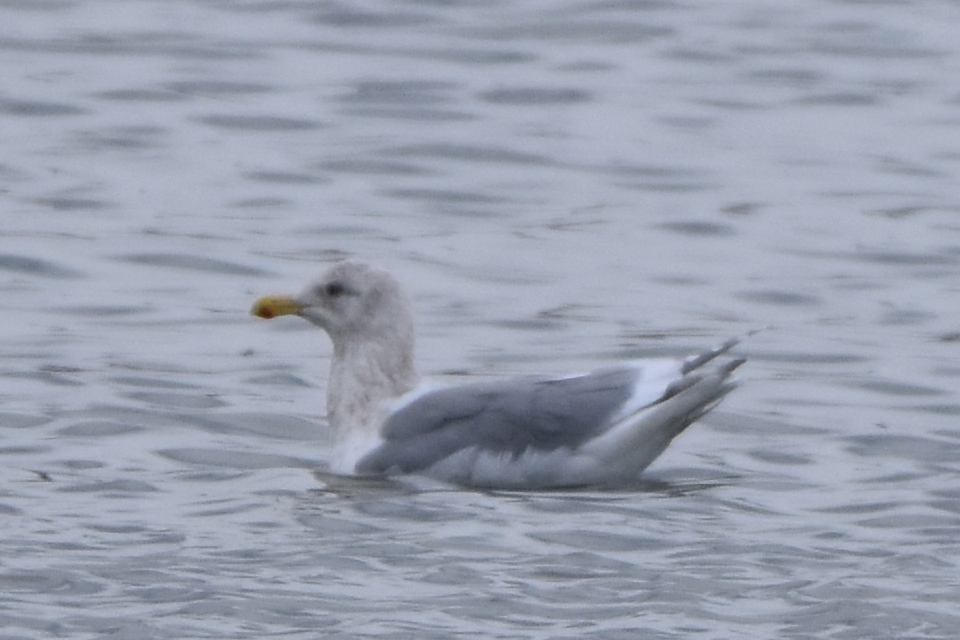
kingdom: Animalia
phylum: Chordata
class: Aves
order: Charadriiformes
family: Laridae
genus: Larus
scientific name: Larus glaucescens
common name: Glaucous-winged gull
